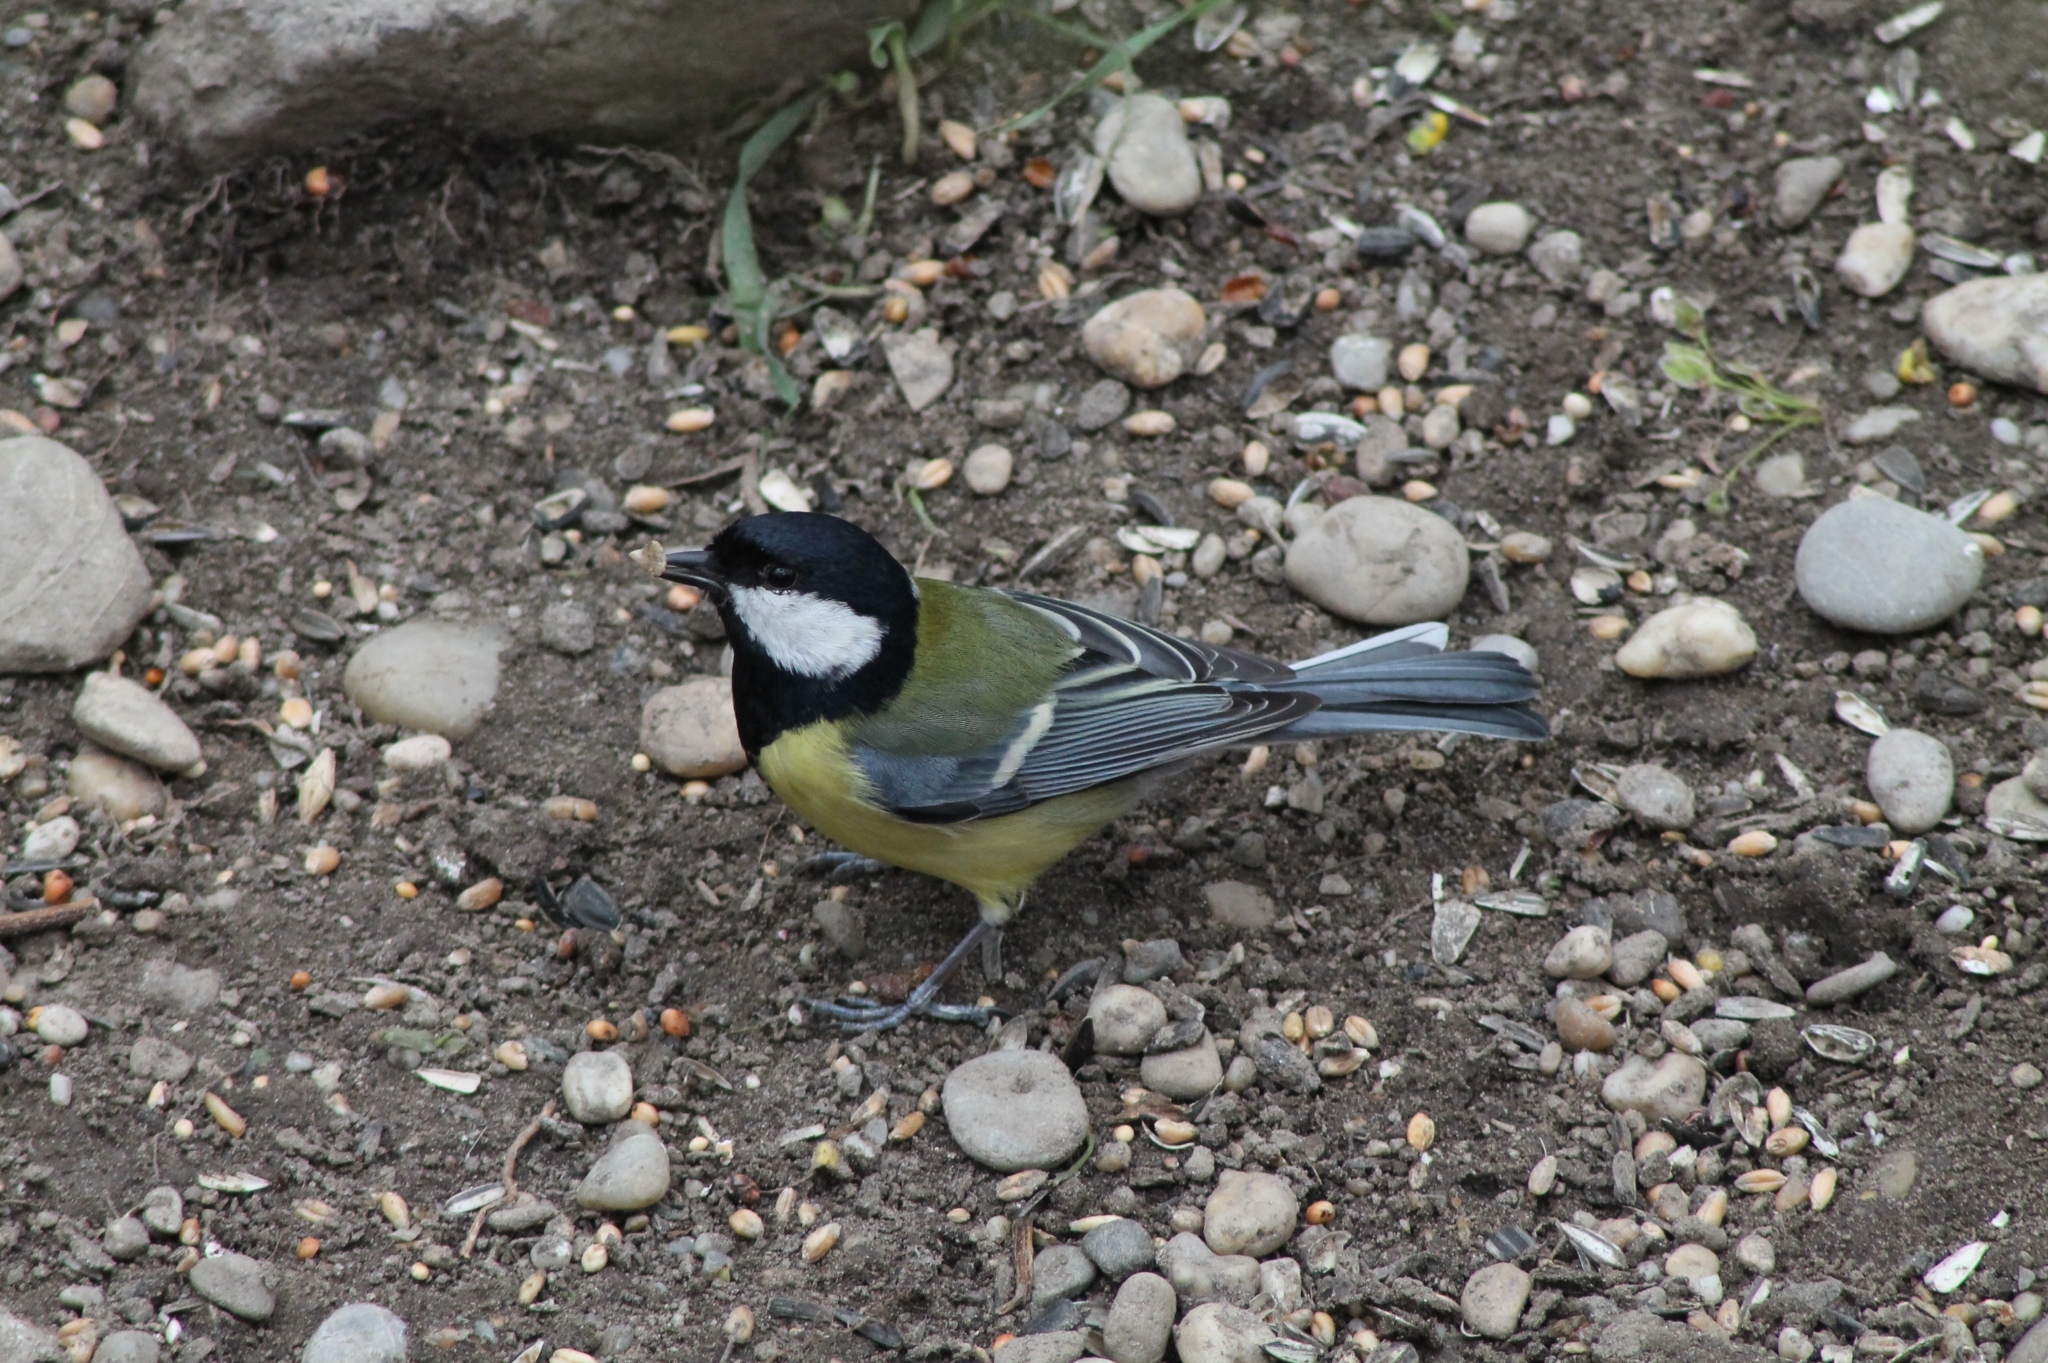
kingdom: Animalia
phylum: Chordata
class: Aves
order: Passeriformes
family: Paridae
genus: Parus
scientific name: Parus major
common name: Great tit
